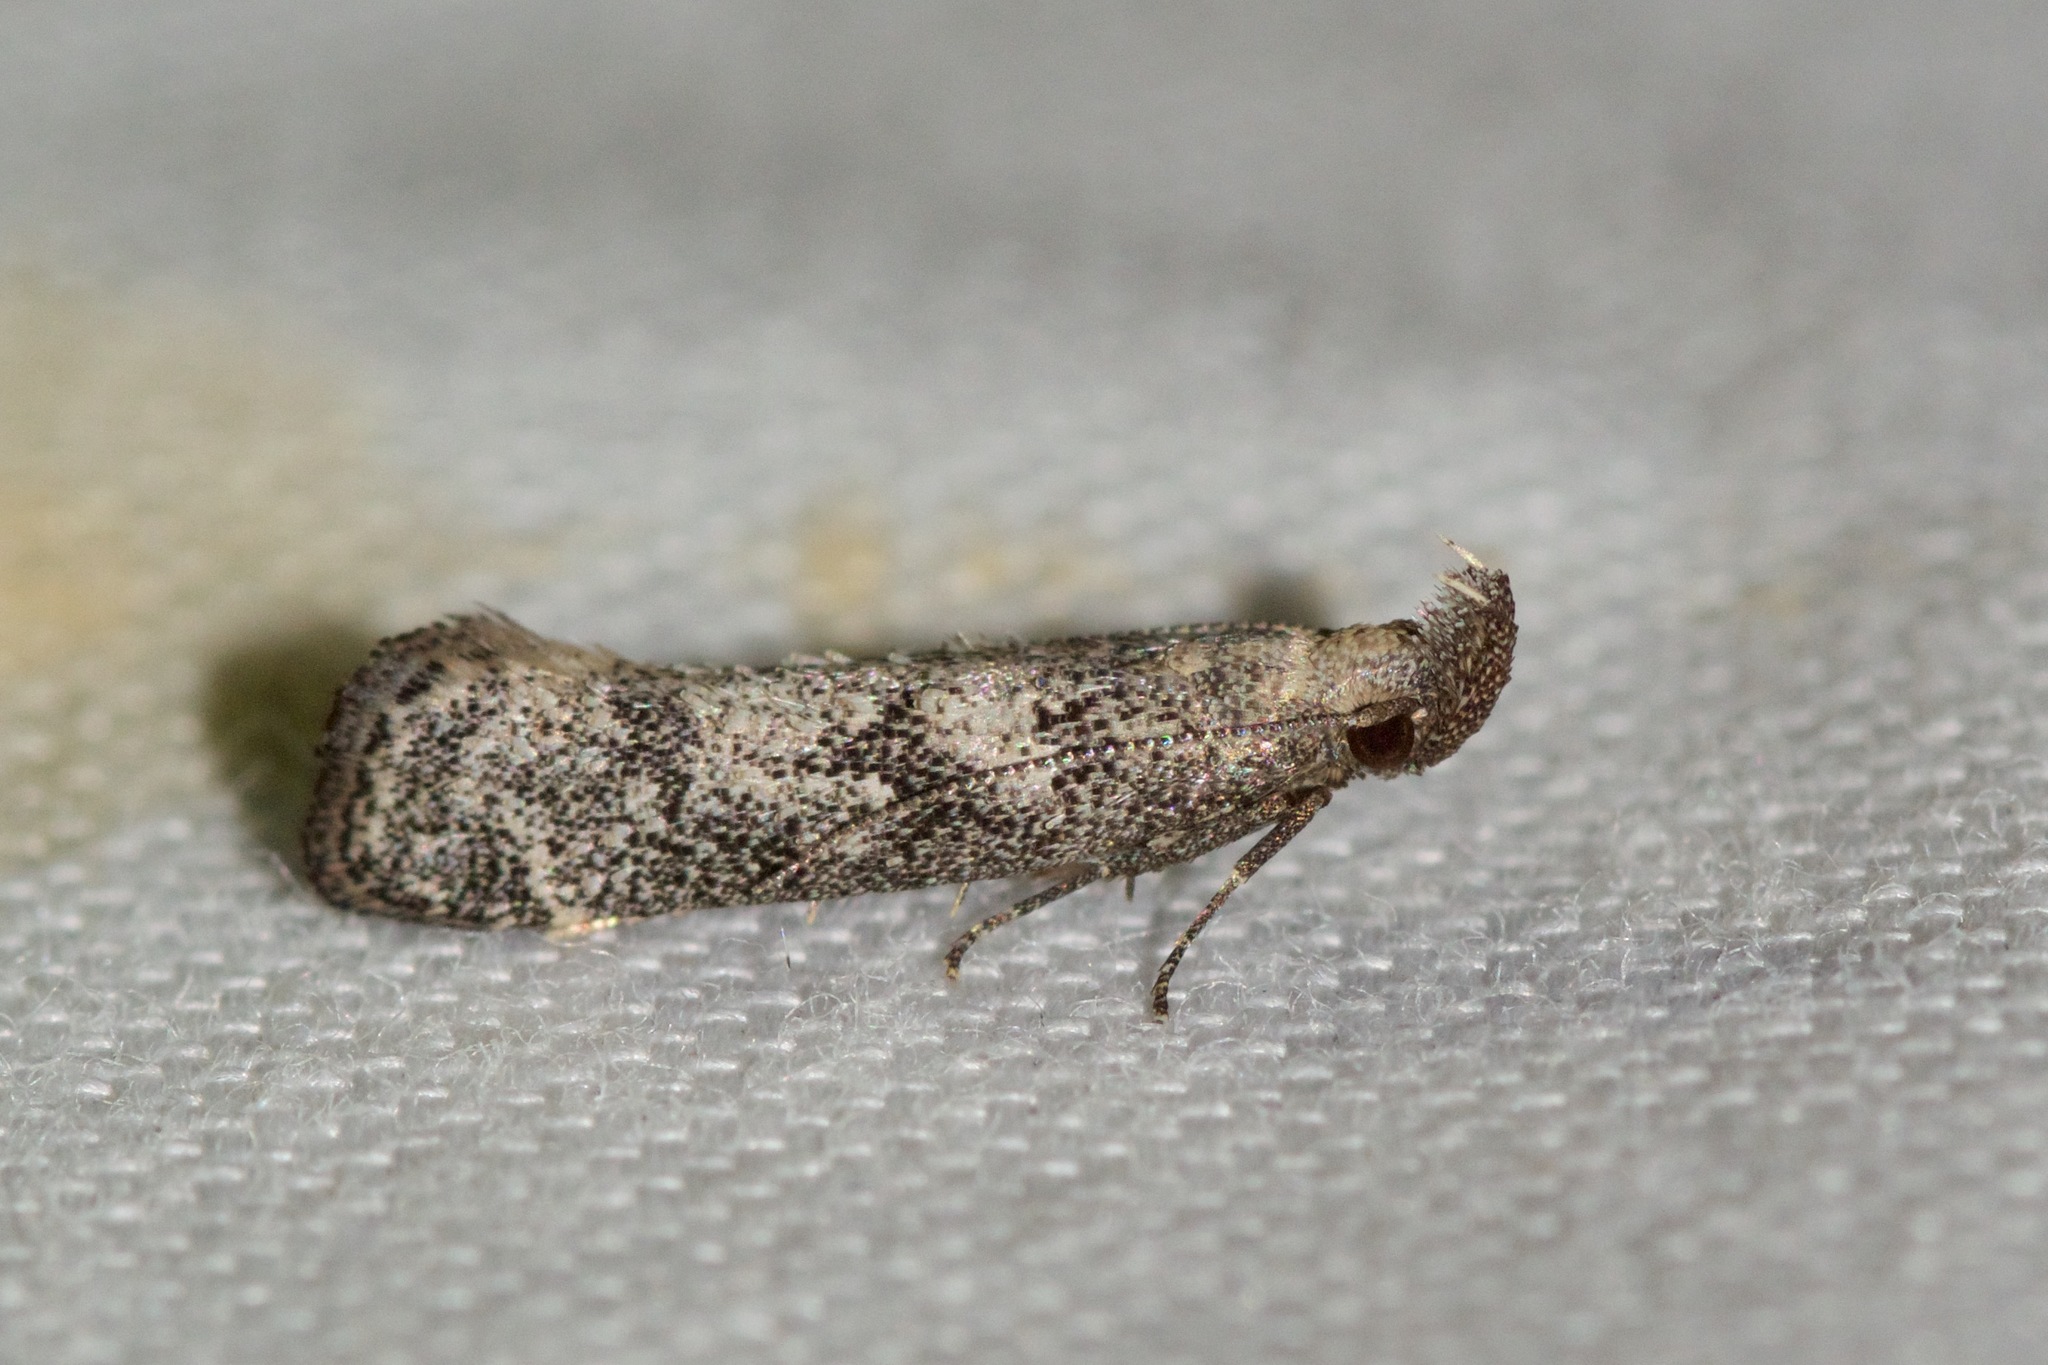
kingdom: Animalia
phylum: Arthropoda
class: Insecta
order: Lepidoptera
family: Gelechiidae
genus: Dichomeris
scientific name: Dichomeris inversella
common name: Inverse dichomeris moth
